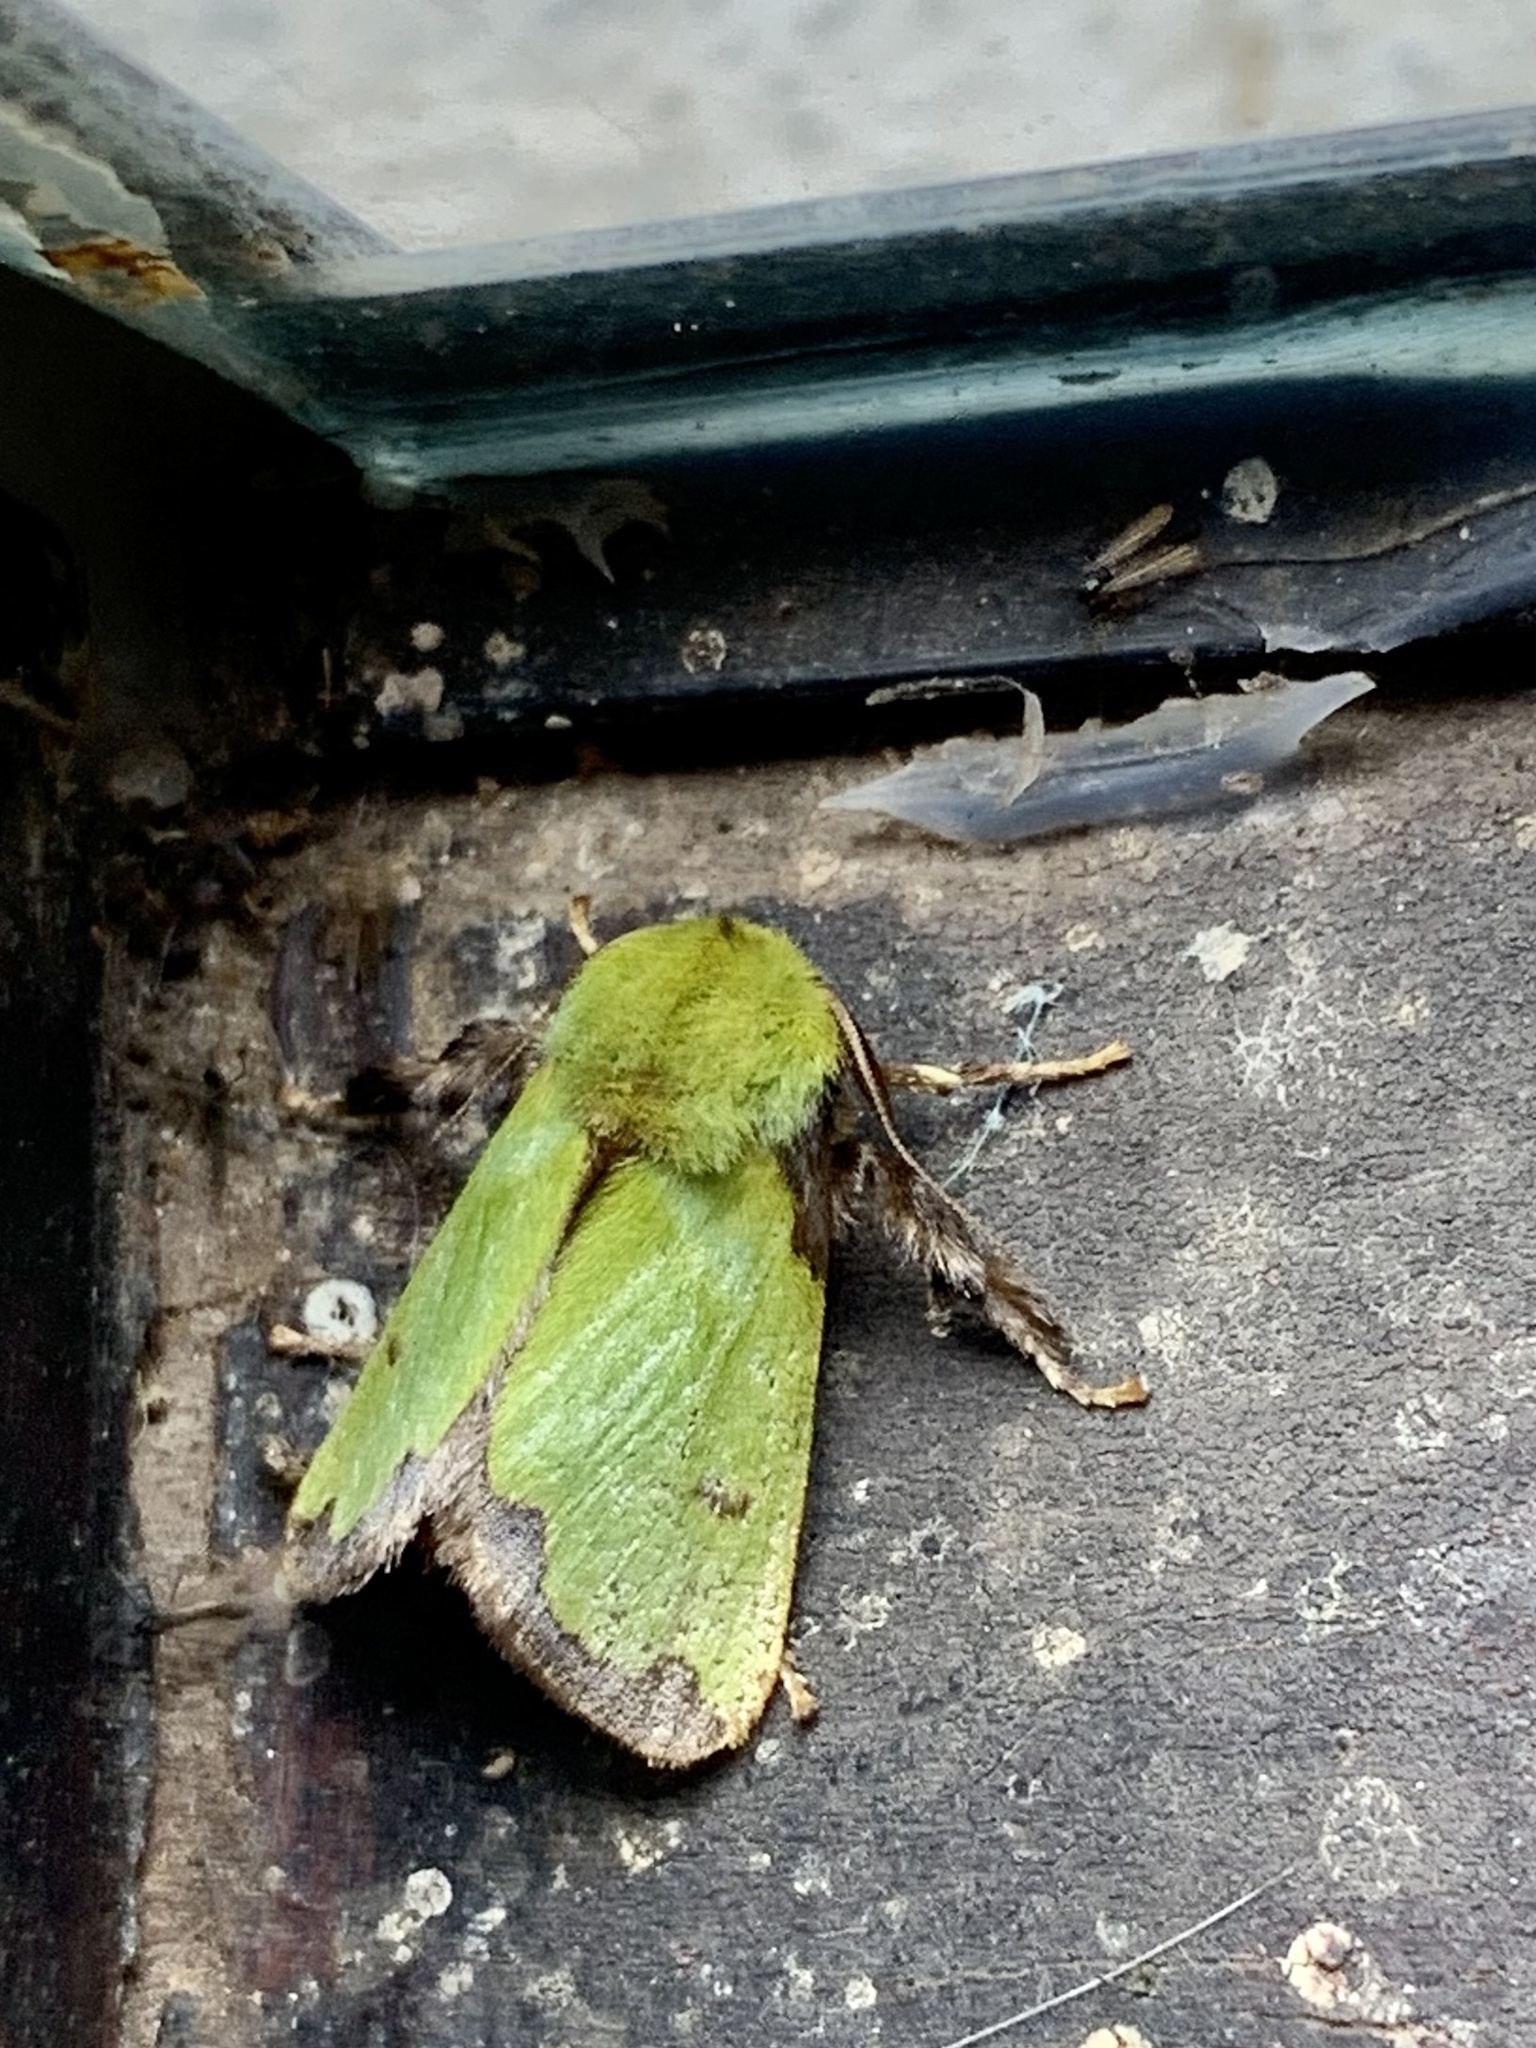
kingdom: Animalia
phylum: Arthropoda
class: Insecta
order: Lepidoptera
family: Limacodidae
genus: Parasa
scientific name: Parasa flora
